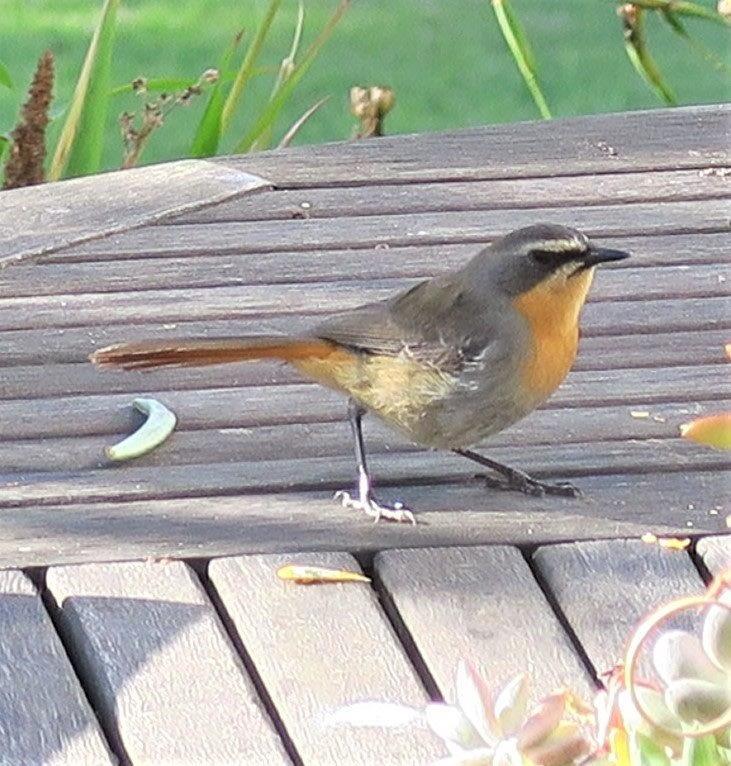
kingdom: Animalia
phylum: Chordata
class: Aves
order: Passeriformes
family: Muscicapidae
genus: Cossypha
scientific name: Cossypha caffra
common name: Cape robin-chat
